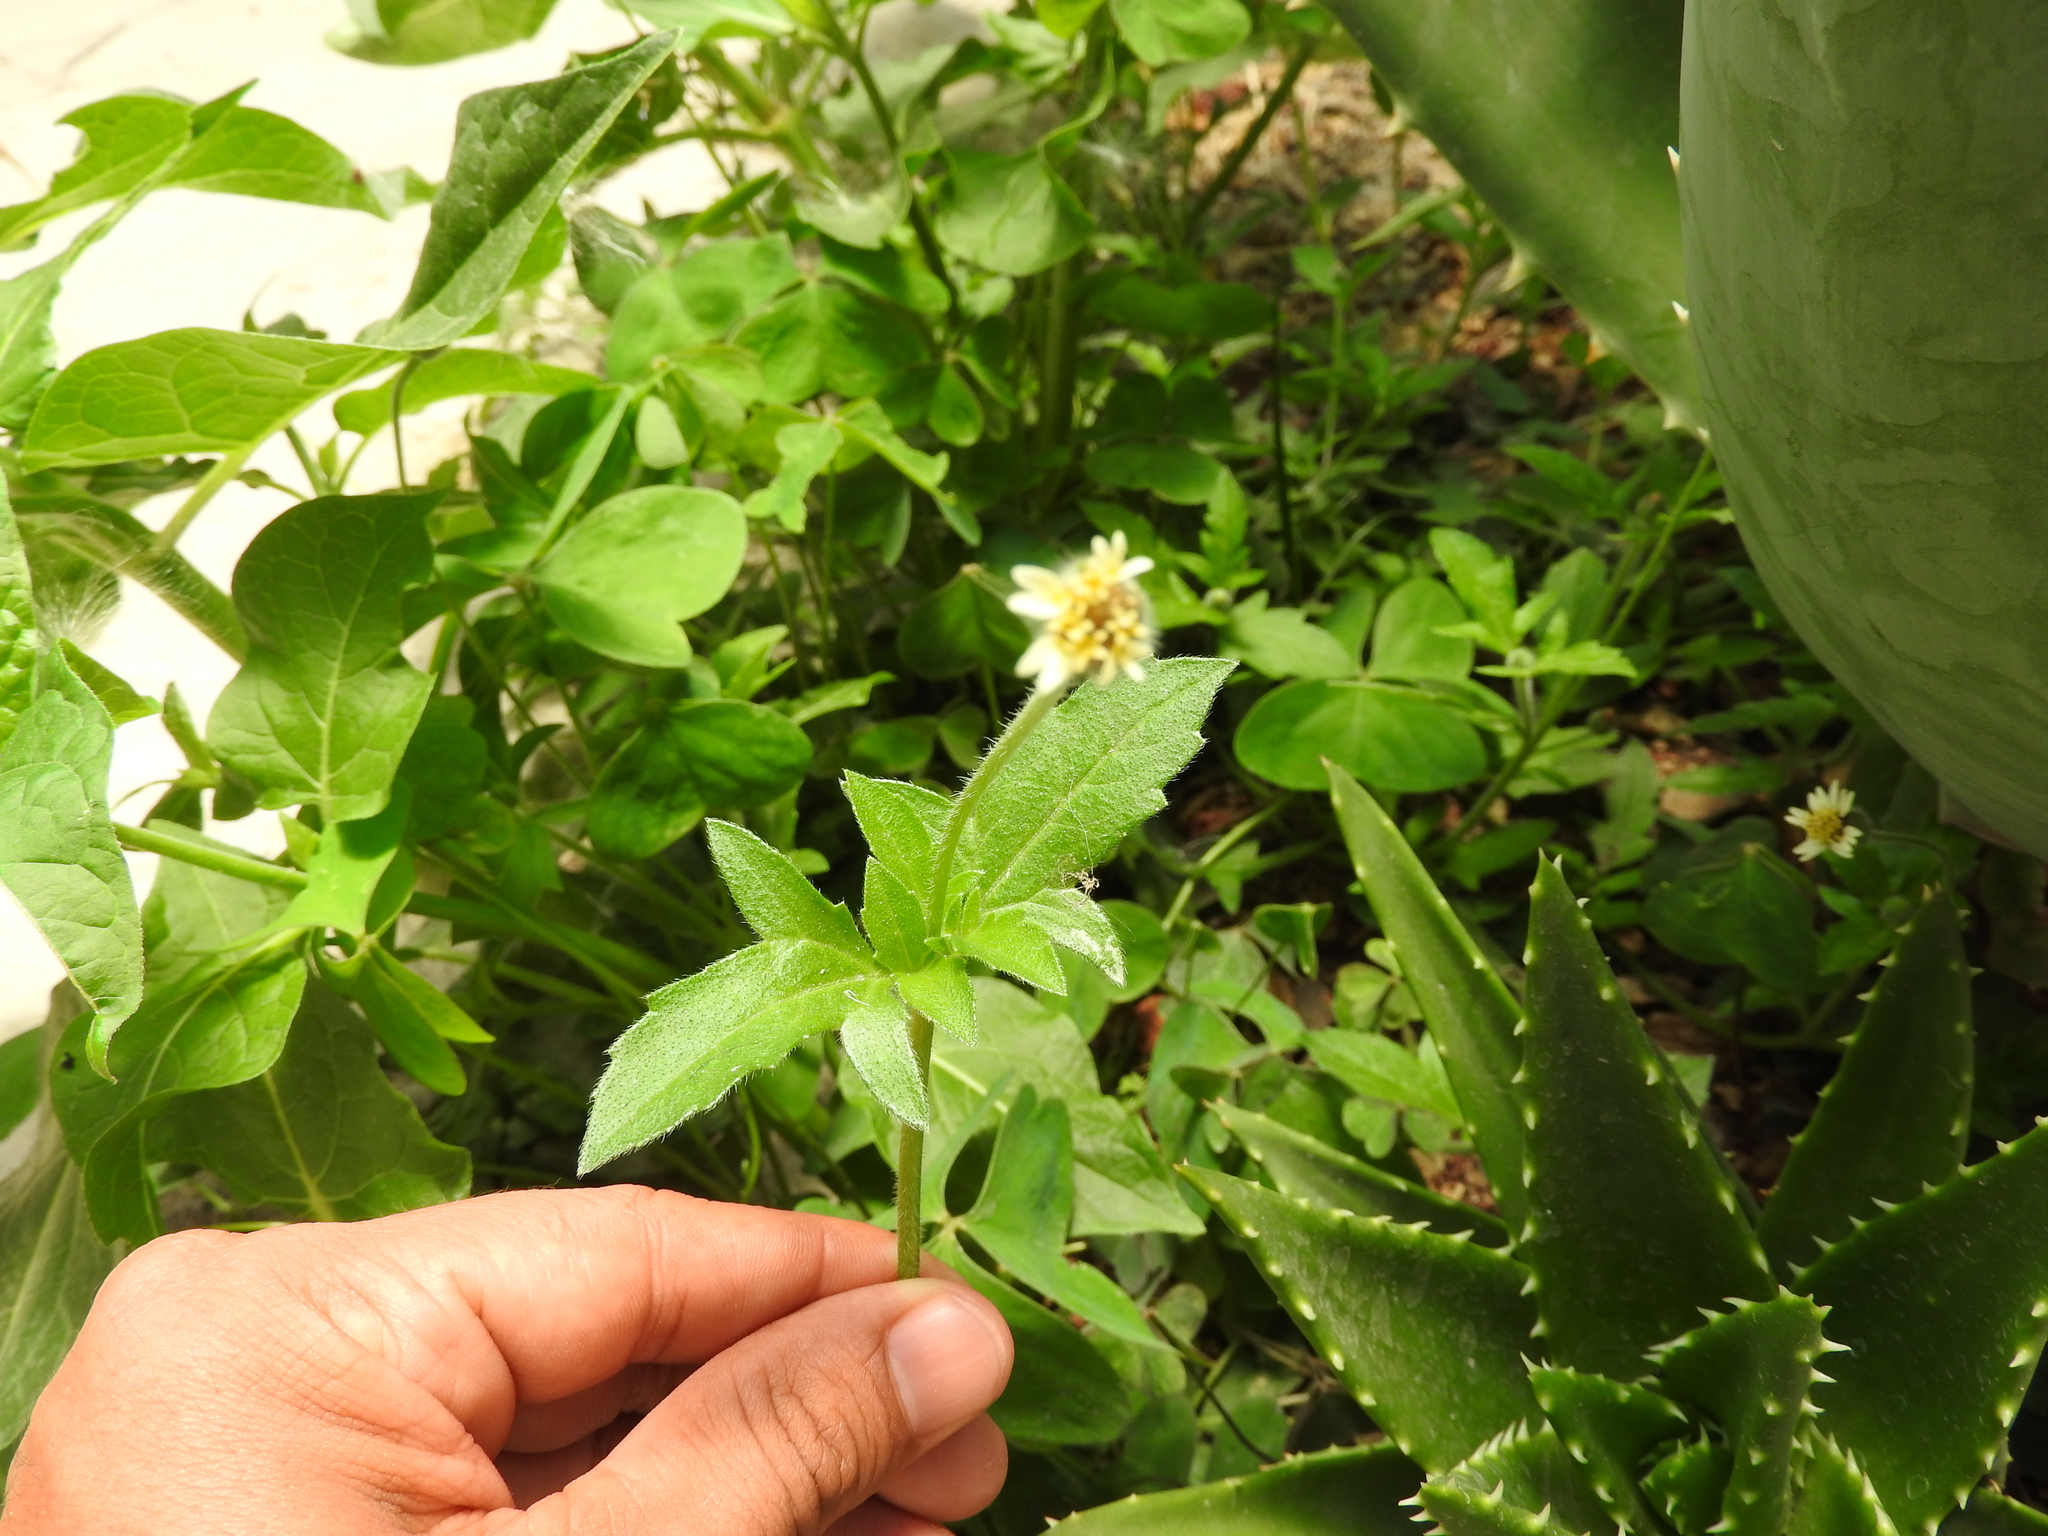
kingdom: Plantae
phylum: Tracheophyta
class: Magnoliopsida
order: Asterales
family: Asteraceae
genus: Tridax
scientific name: Tridax procumbens
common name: Coatbuttons
